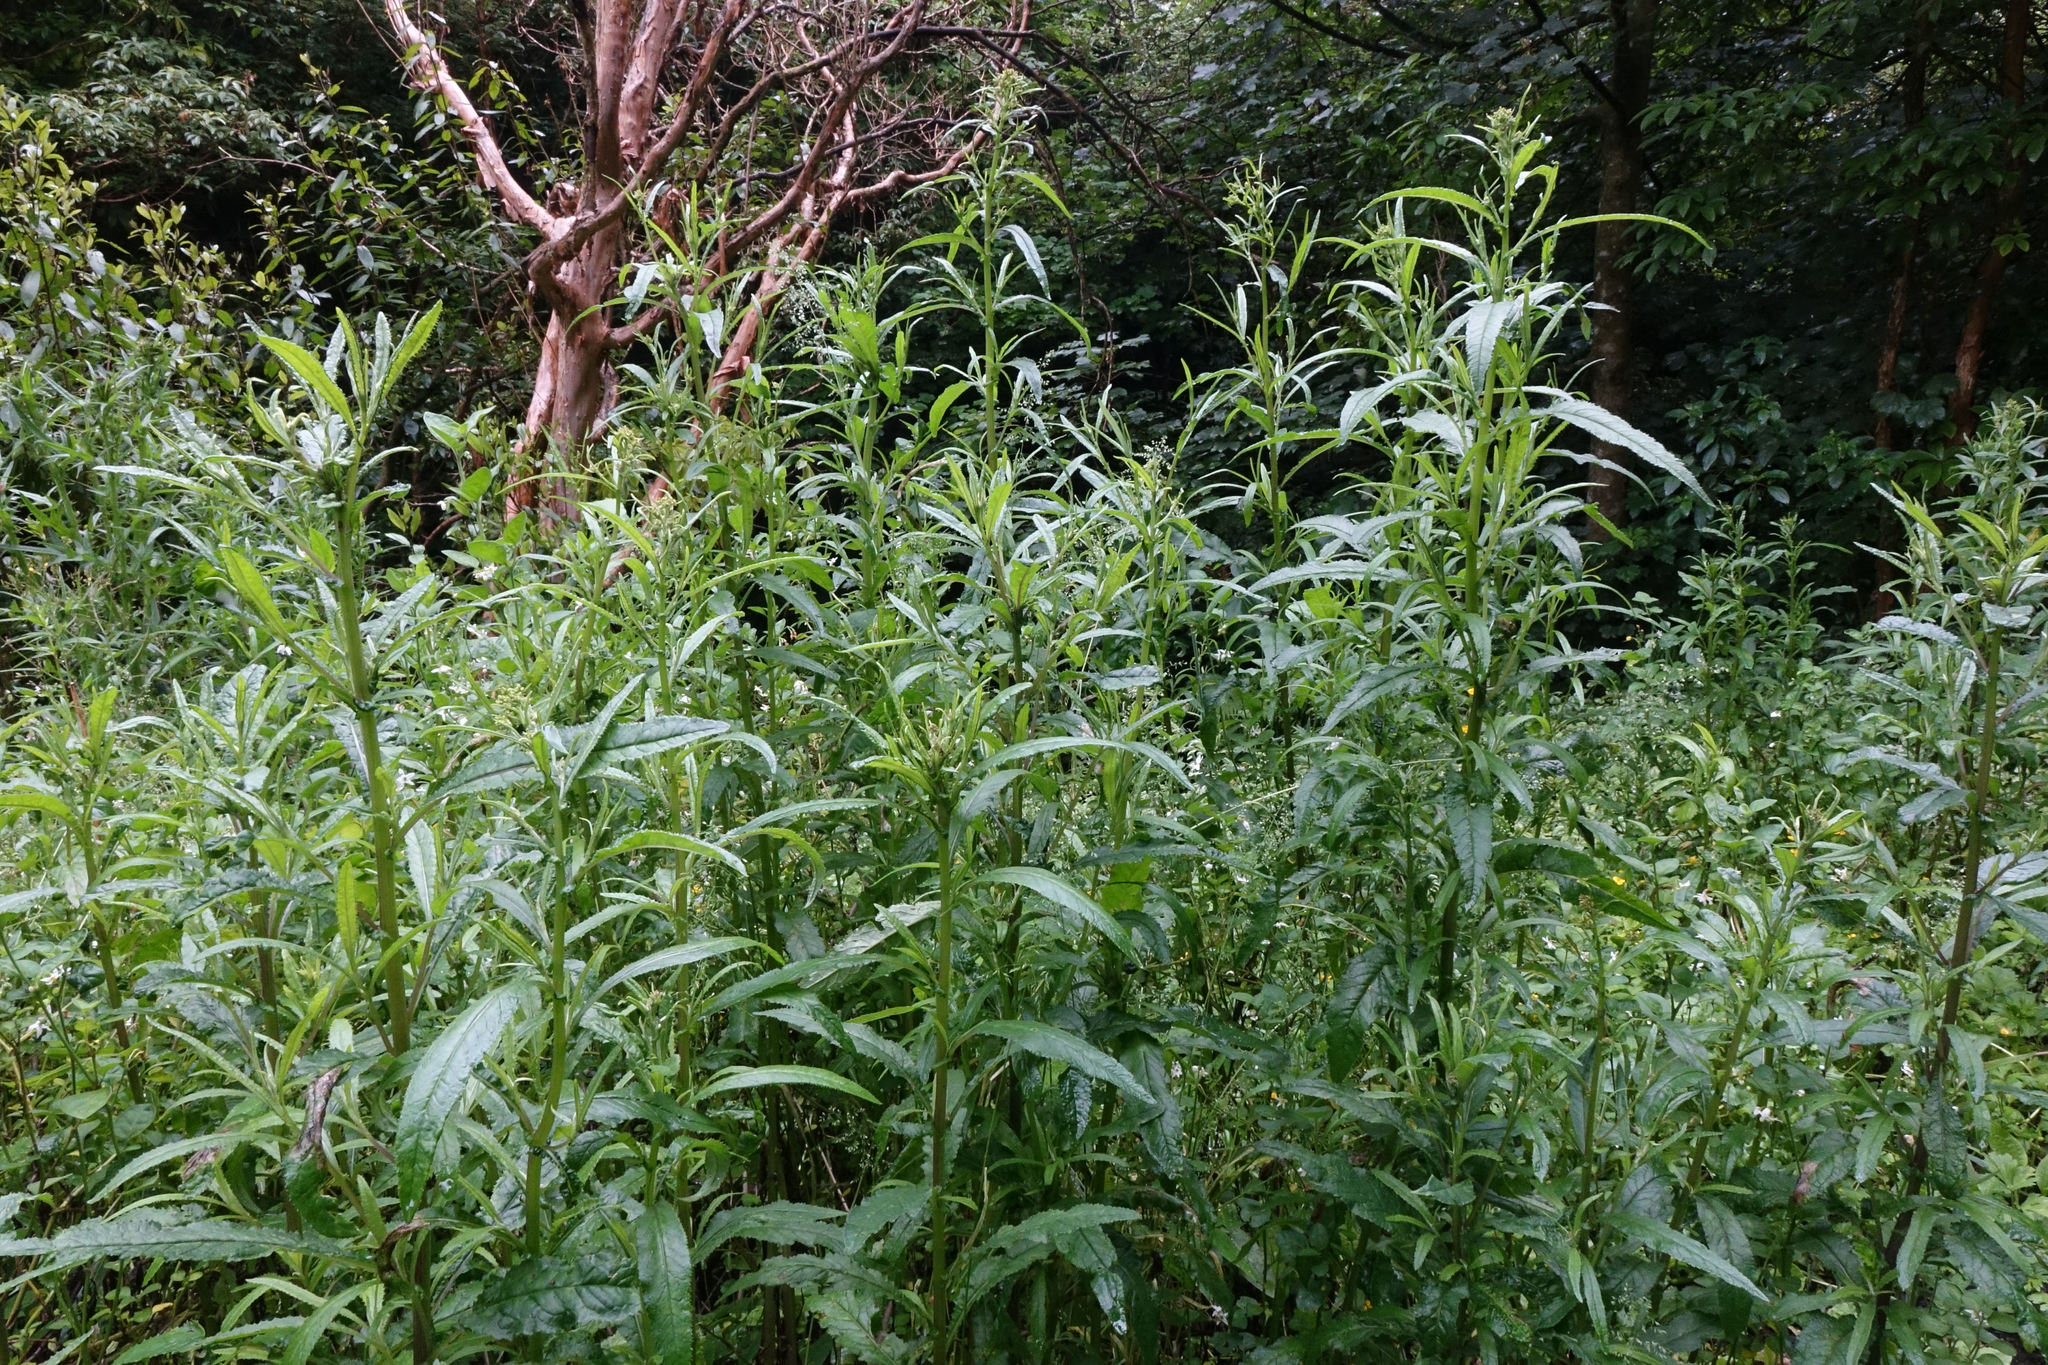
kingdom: Plantae
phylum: Tracheophyta
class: Magnoliopsida
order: Asterales
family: Asteraceae
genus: Senecio
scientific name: Senecio minimus
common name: Toothed fireweed
